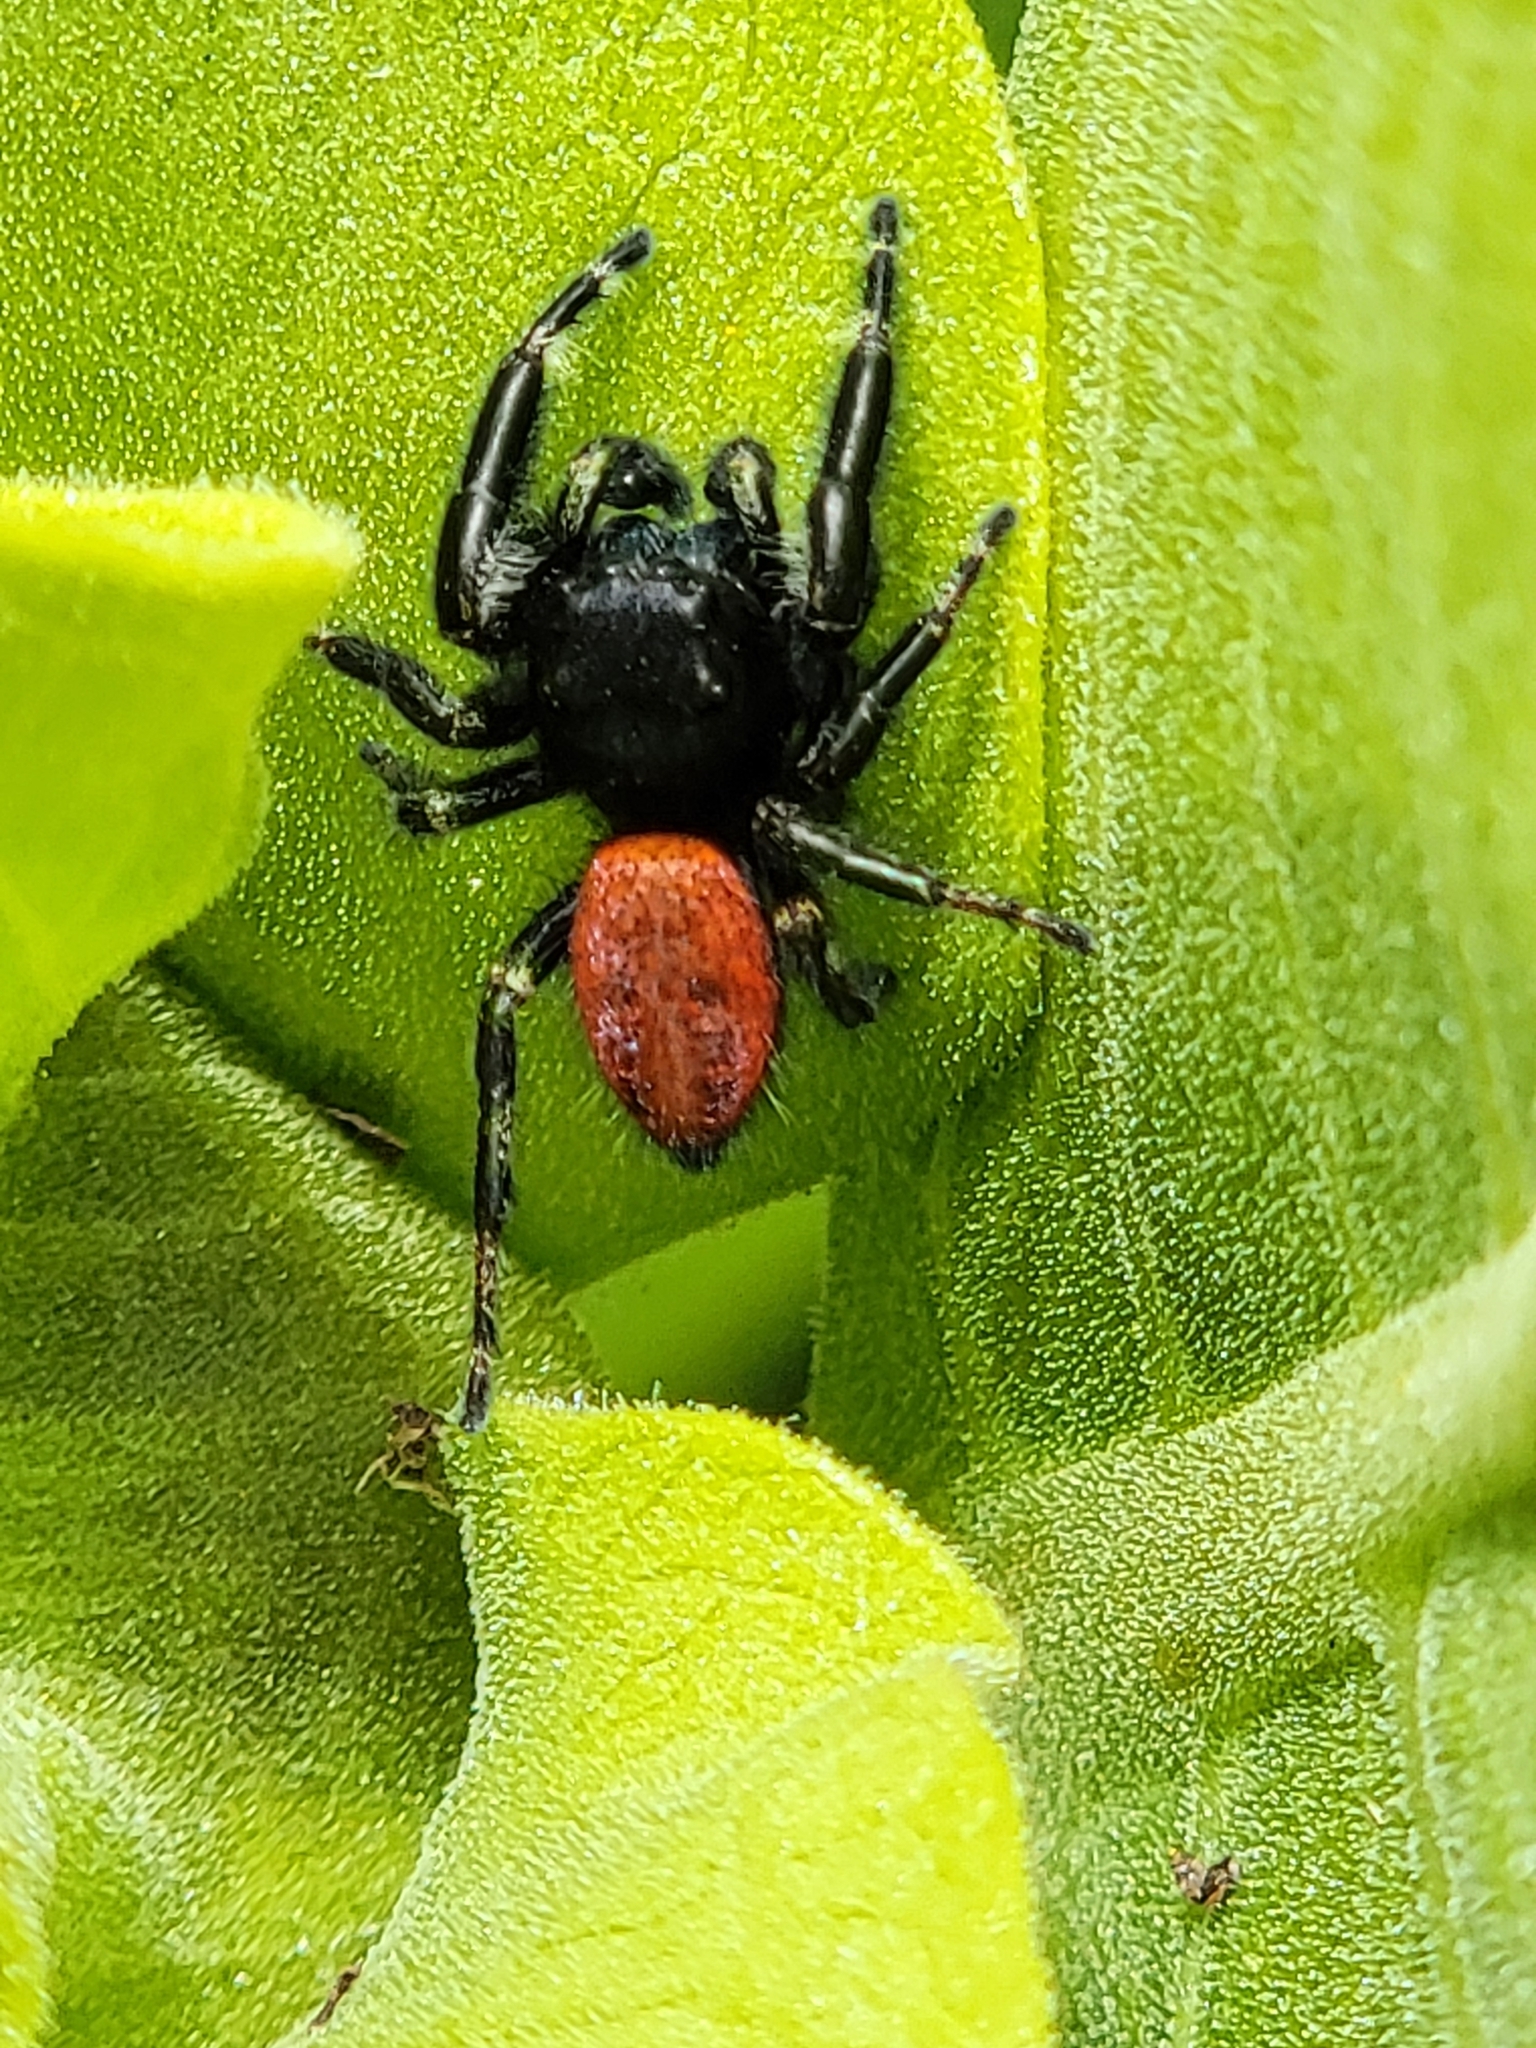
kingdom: Animalia
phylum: Arthropoda
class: Arachnida
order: Araneae
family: Salticidae
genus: Phidippus
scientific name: Phidippus johnsoni
